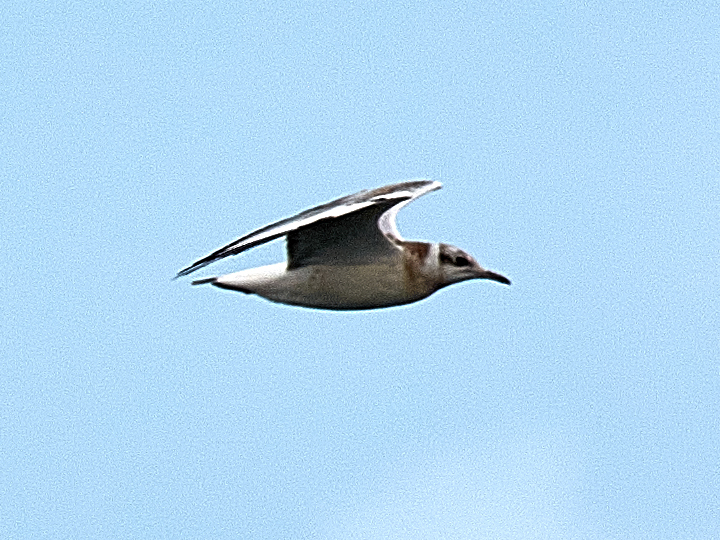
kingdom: Animalia
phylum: Chordata
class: Aves
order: Charadriiformes
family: Laridae
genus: Chroicocephalus
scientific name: Chroicocephalus ridibundus
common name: Black-headed gull
